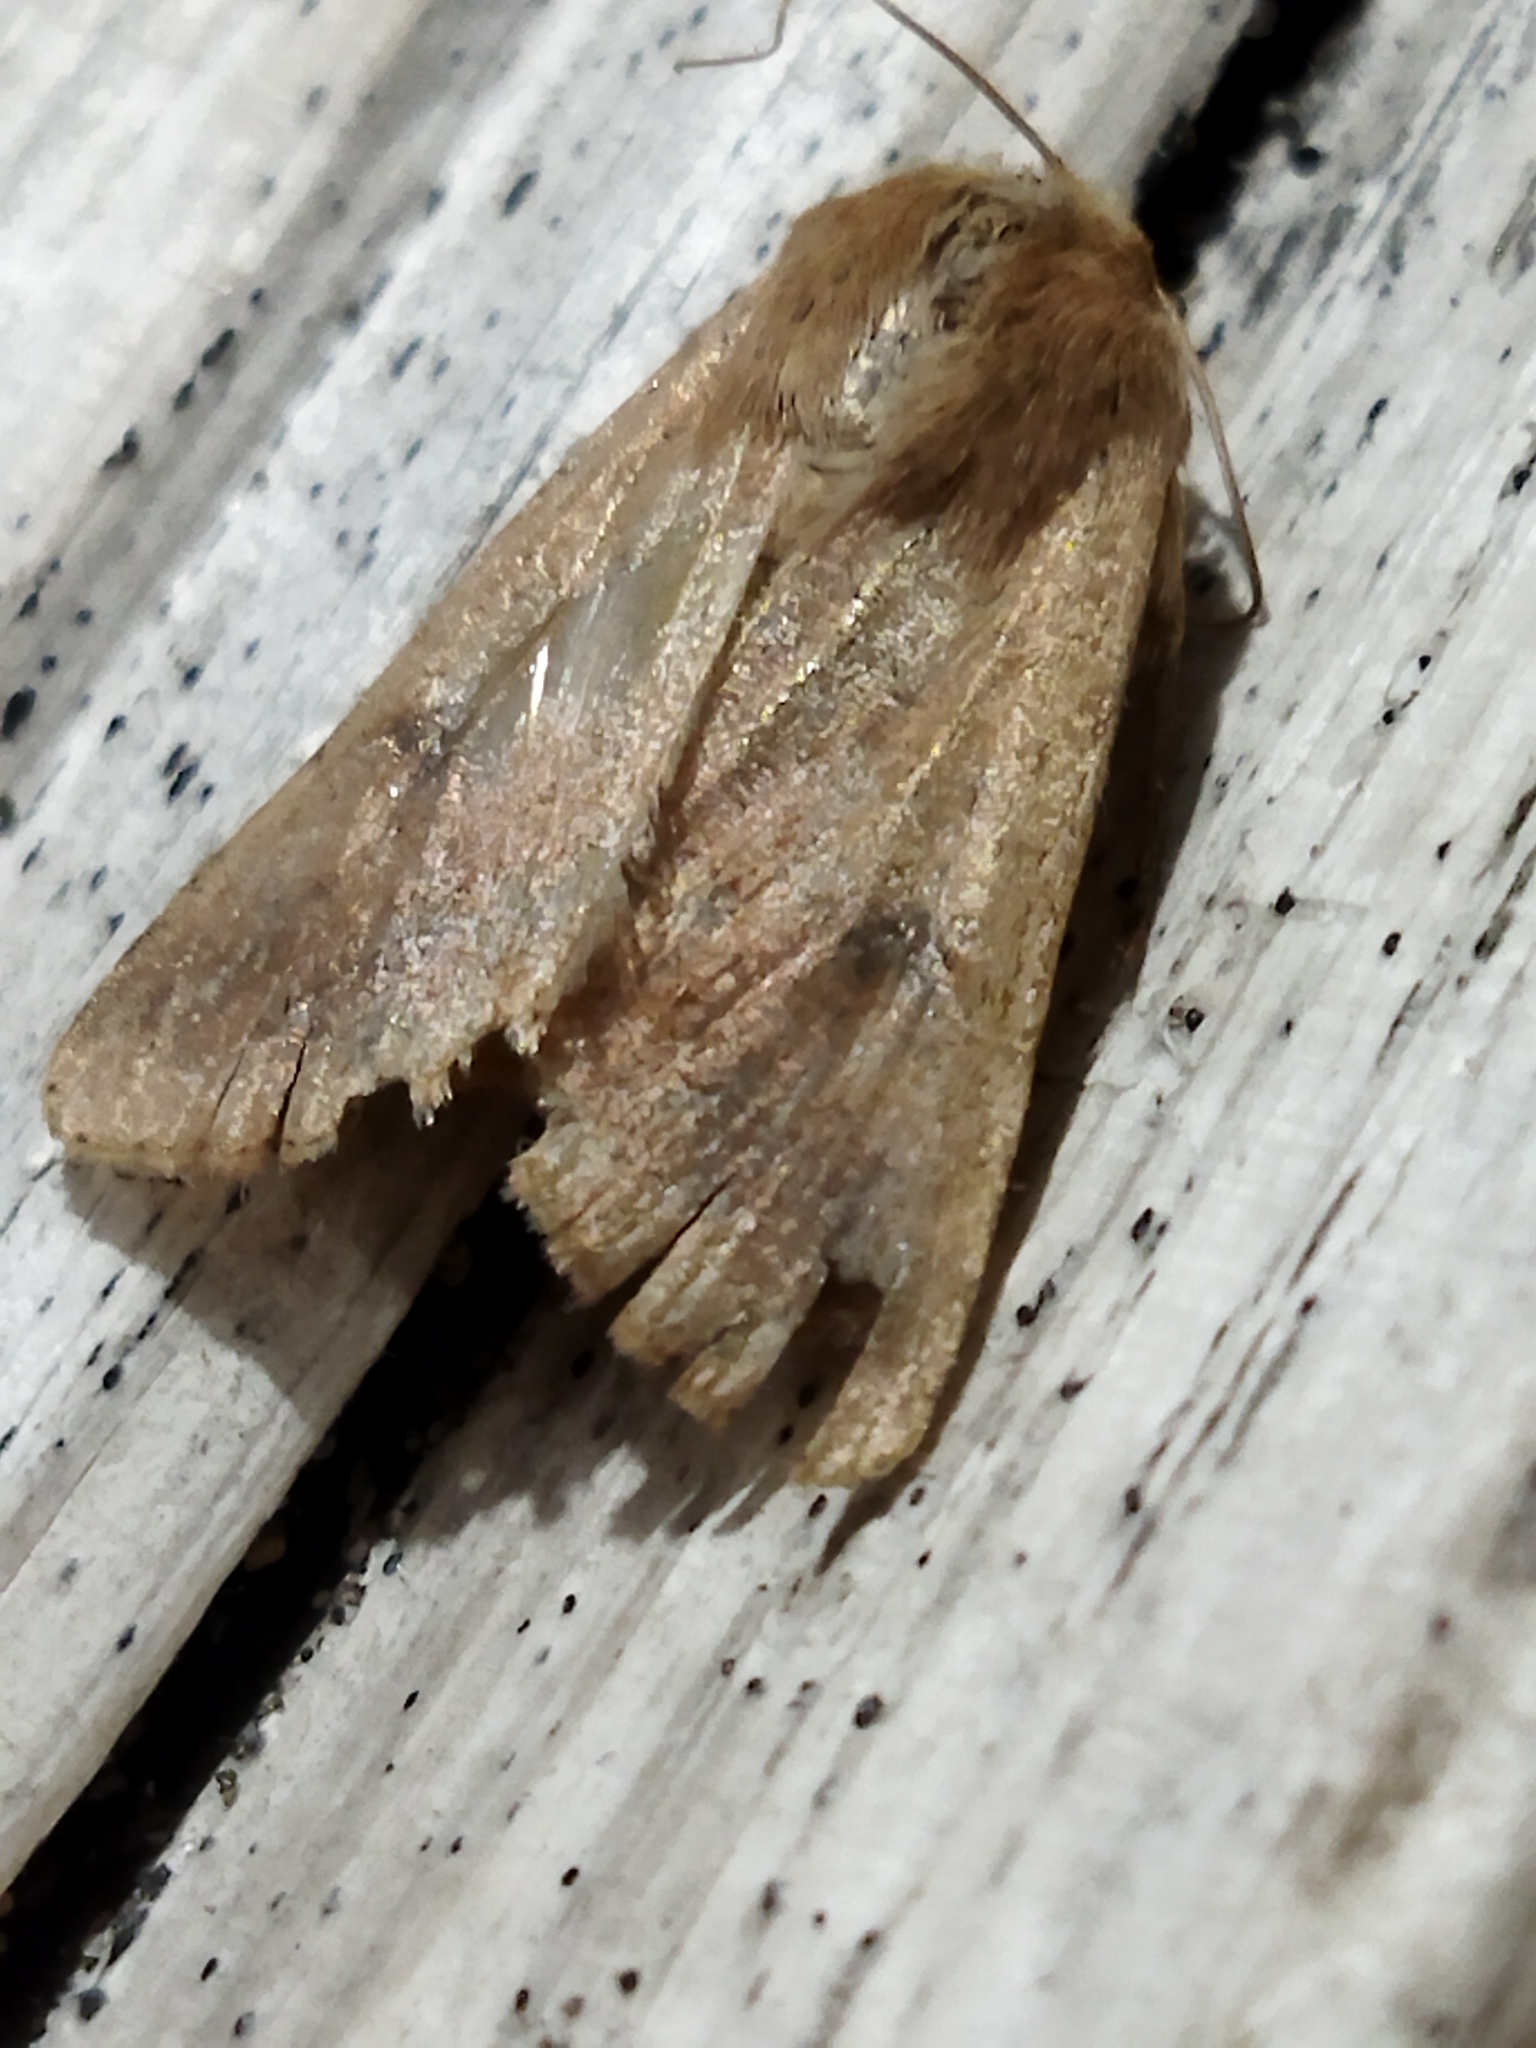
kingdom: Animalia
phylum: Arthropoda
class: Insecta
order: Lepidoptera
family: Noctuidae
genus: Helicoverpa
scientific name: Helicoverpa armigera
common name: Cotton bollworm
